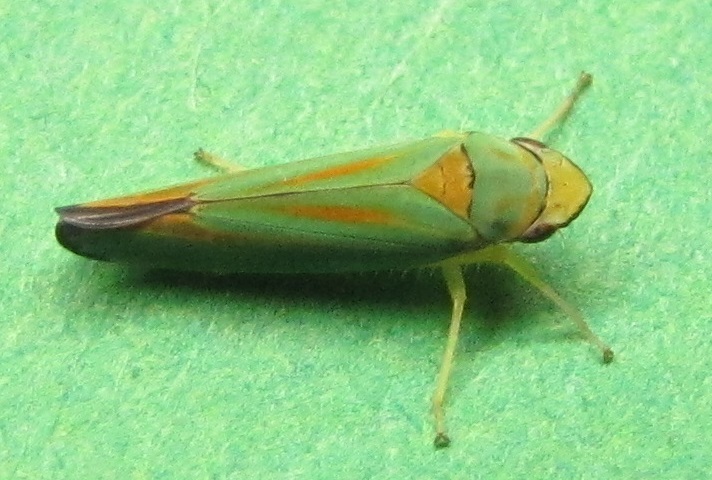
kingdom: Animalia
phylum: Arthropoda
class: Insecta
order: Hemiptera
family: Cicadellidae
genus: Graphocephala
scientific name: Graphocephala fennahi
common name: Rhododendron leafhopper
